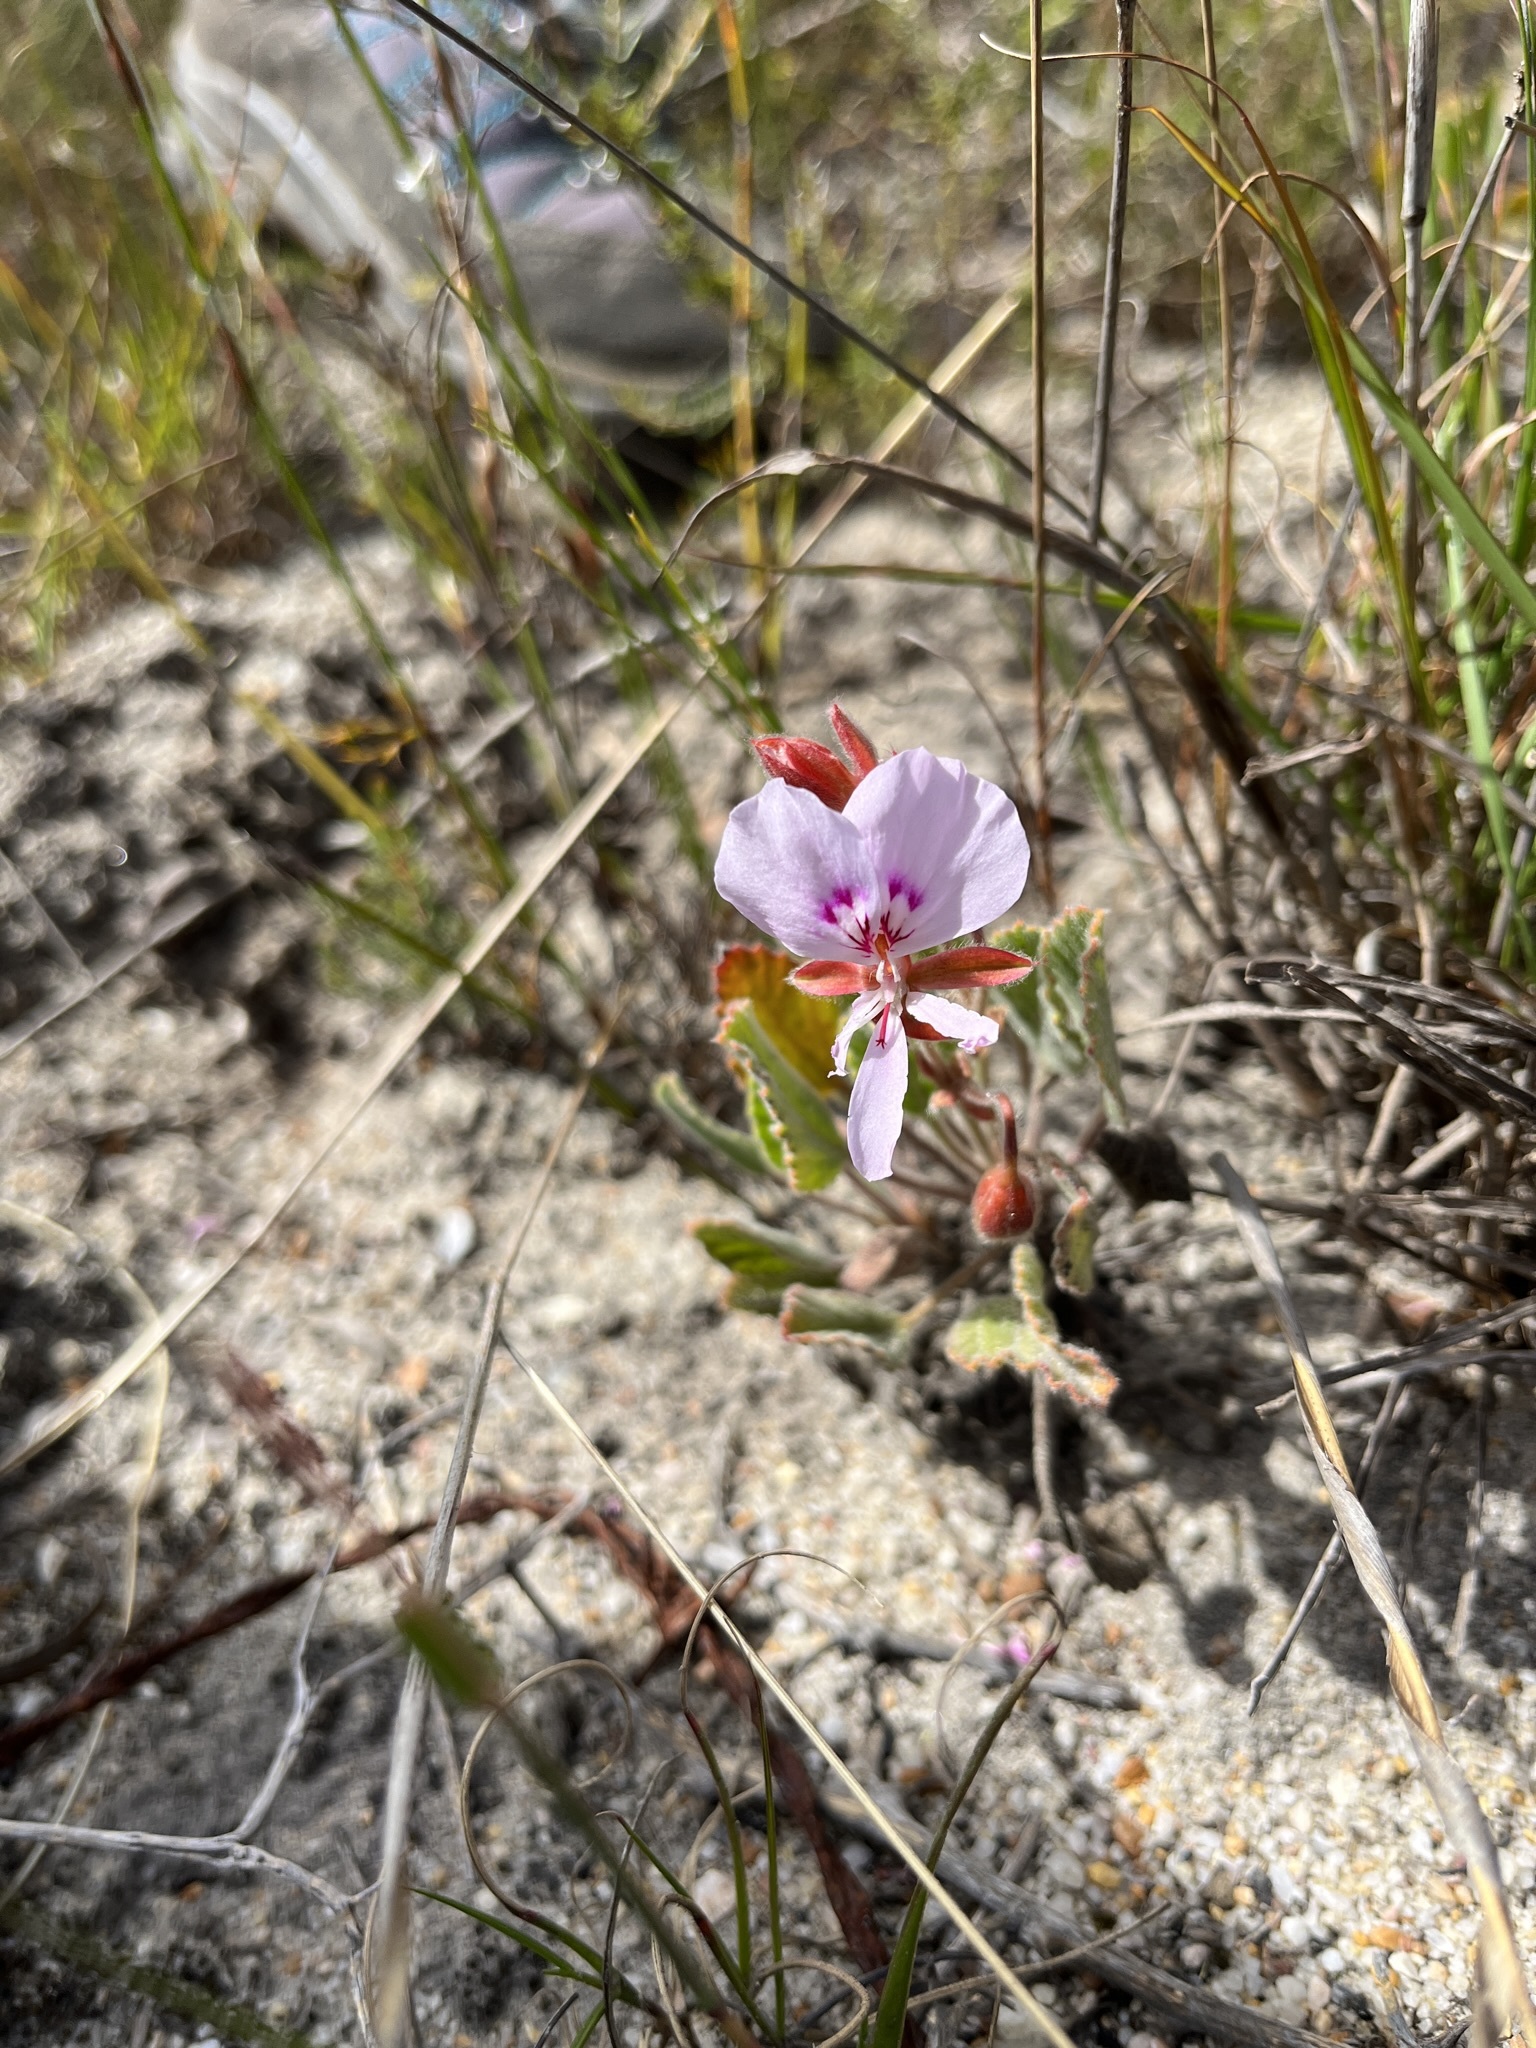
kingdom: Plantae
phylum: Tracheophyta
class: Magnoliopsida
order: Geraniales
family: Geraniaceae
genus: Pelargonium
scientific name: Pelargonium ovale
